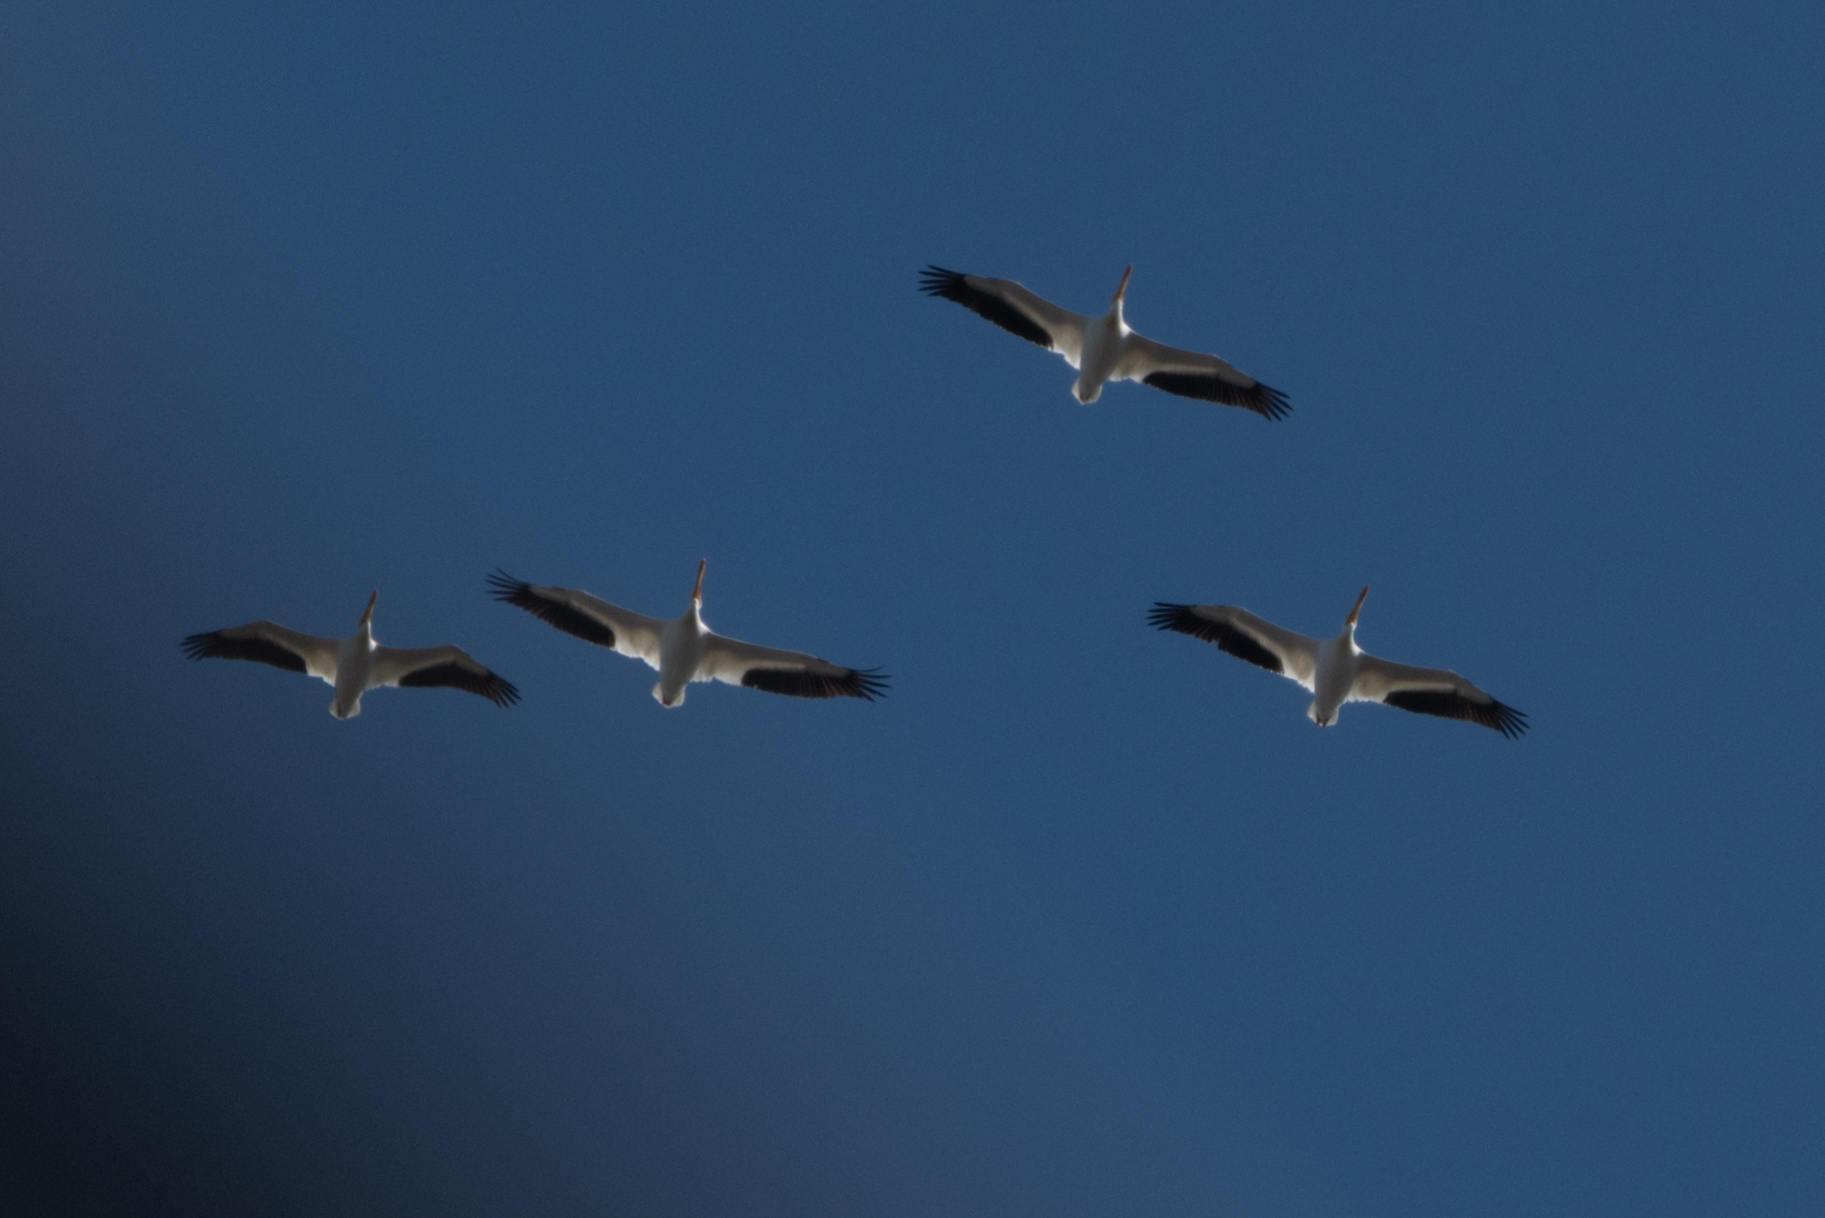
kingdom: Animalia
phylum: Chordata
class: Aves
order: Pelecaniformes
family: Pelecanidae
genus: Pelecanus
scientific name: Pelecanus erythrorhynchos
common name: American white pelican
